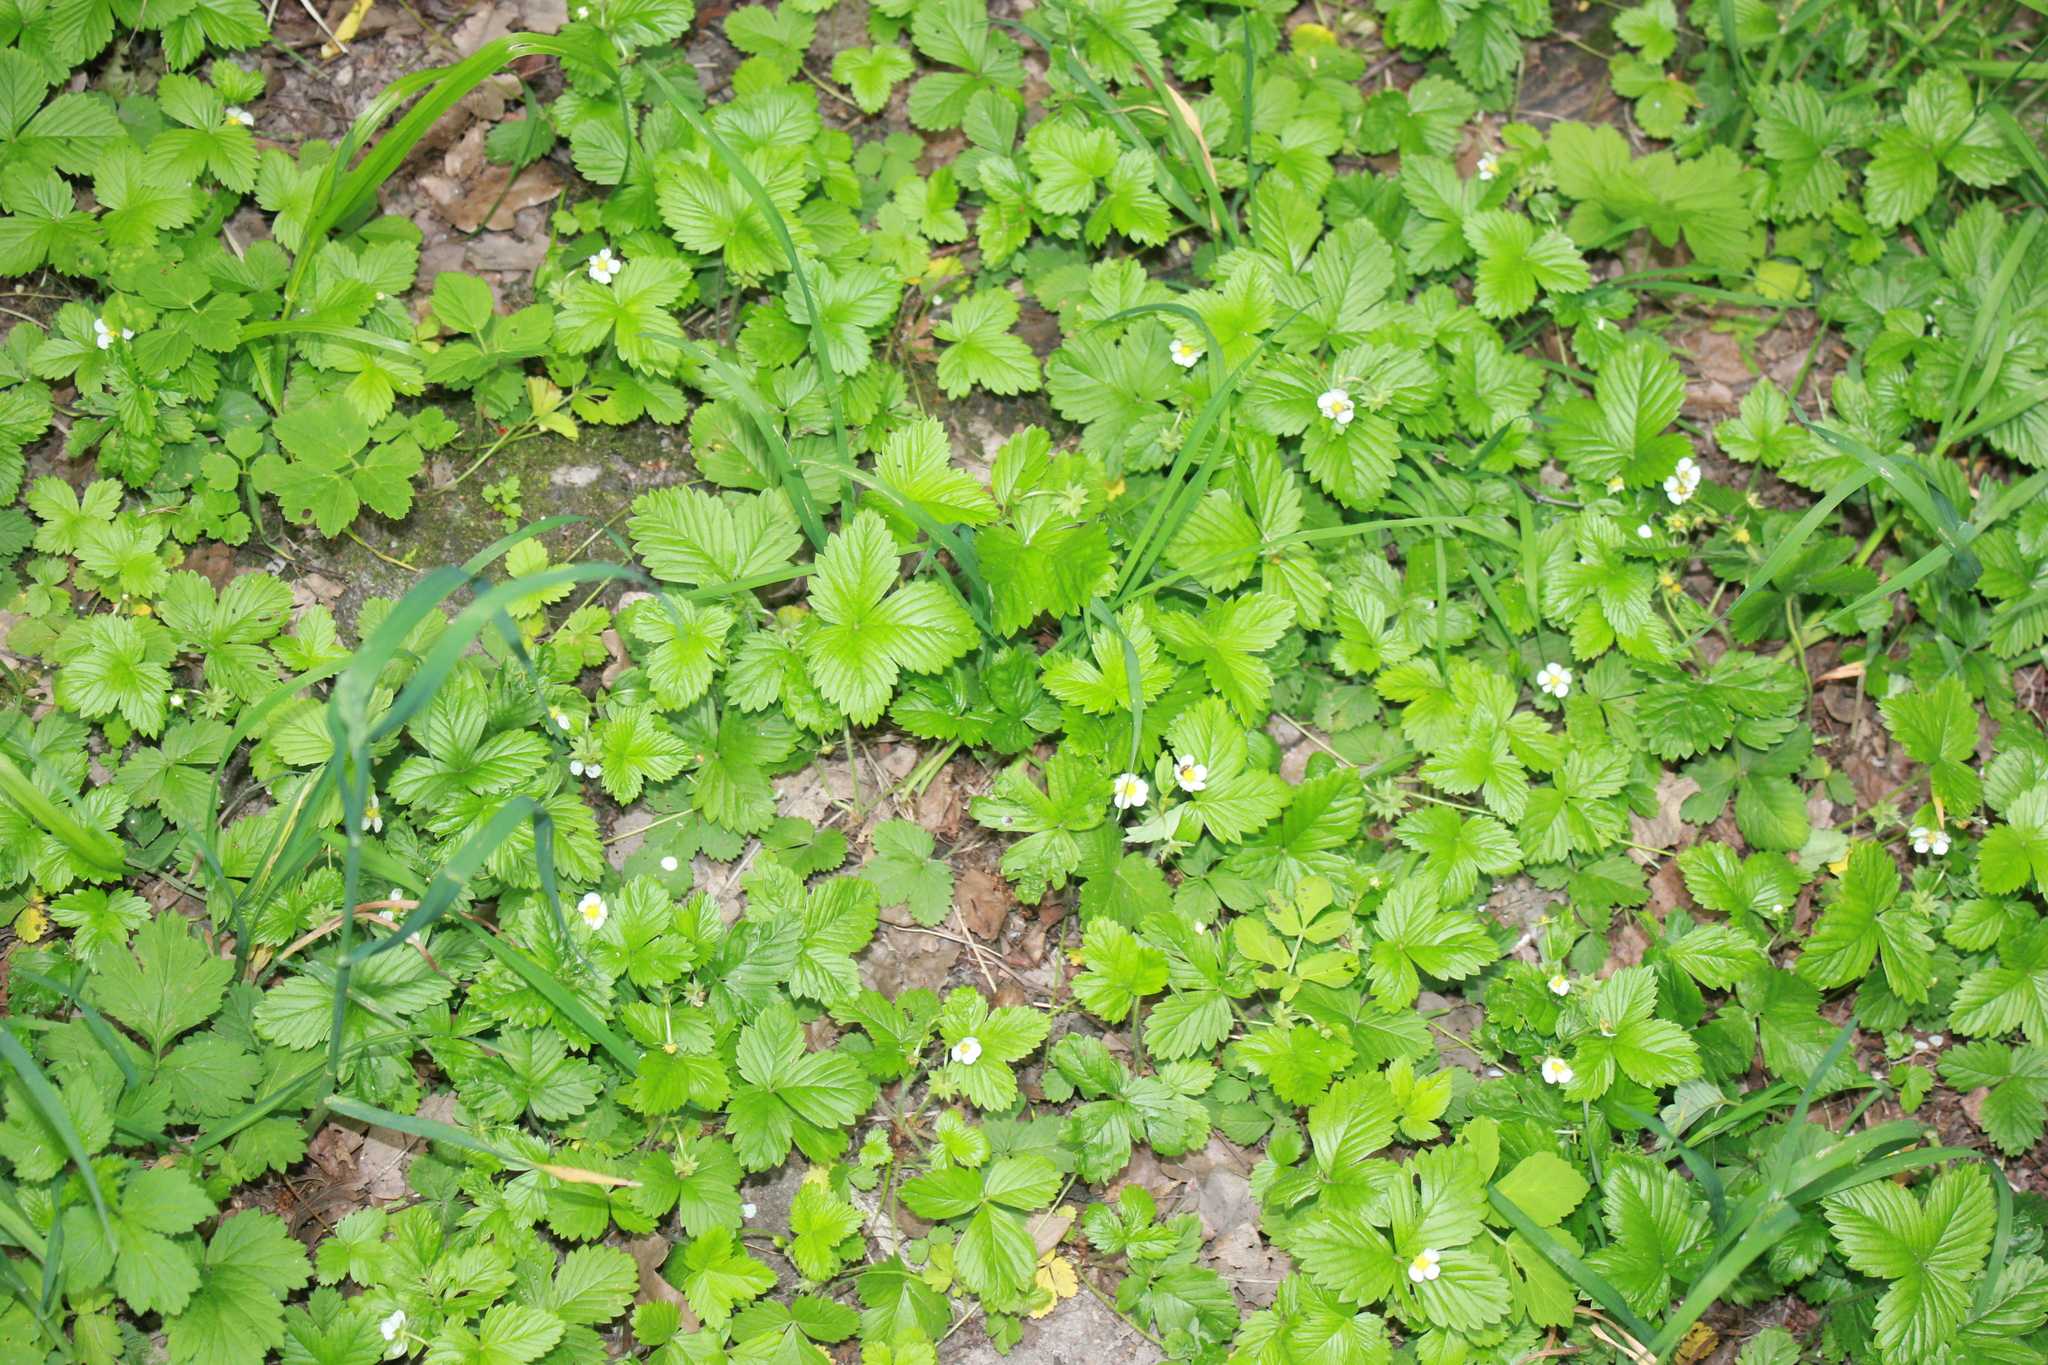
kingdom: Plantae
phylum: Tracheophyta
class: Magnoliopsida
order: Rosales
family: Rosaceae
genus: Fragaria
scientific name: Fragaria vesca
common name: Wild strawberry
